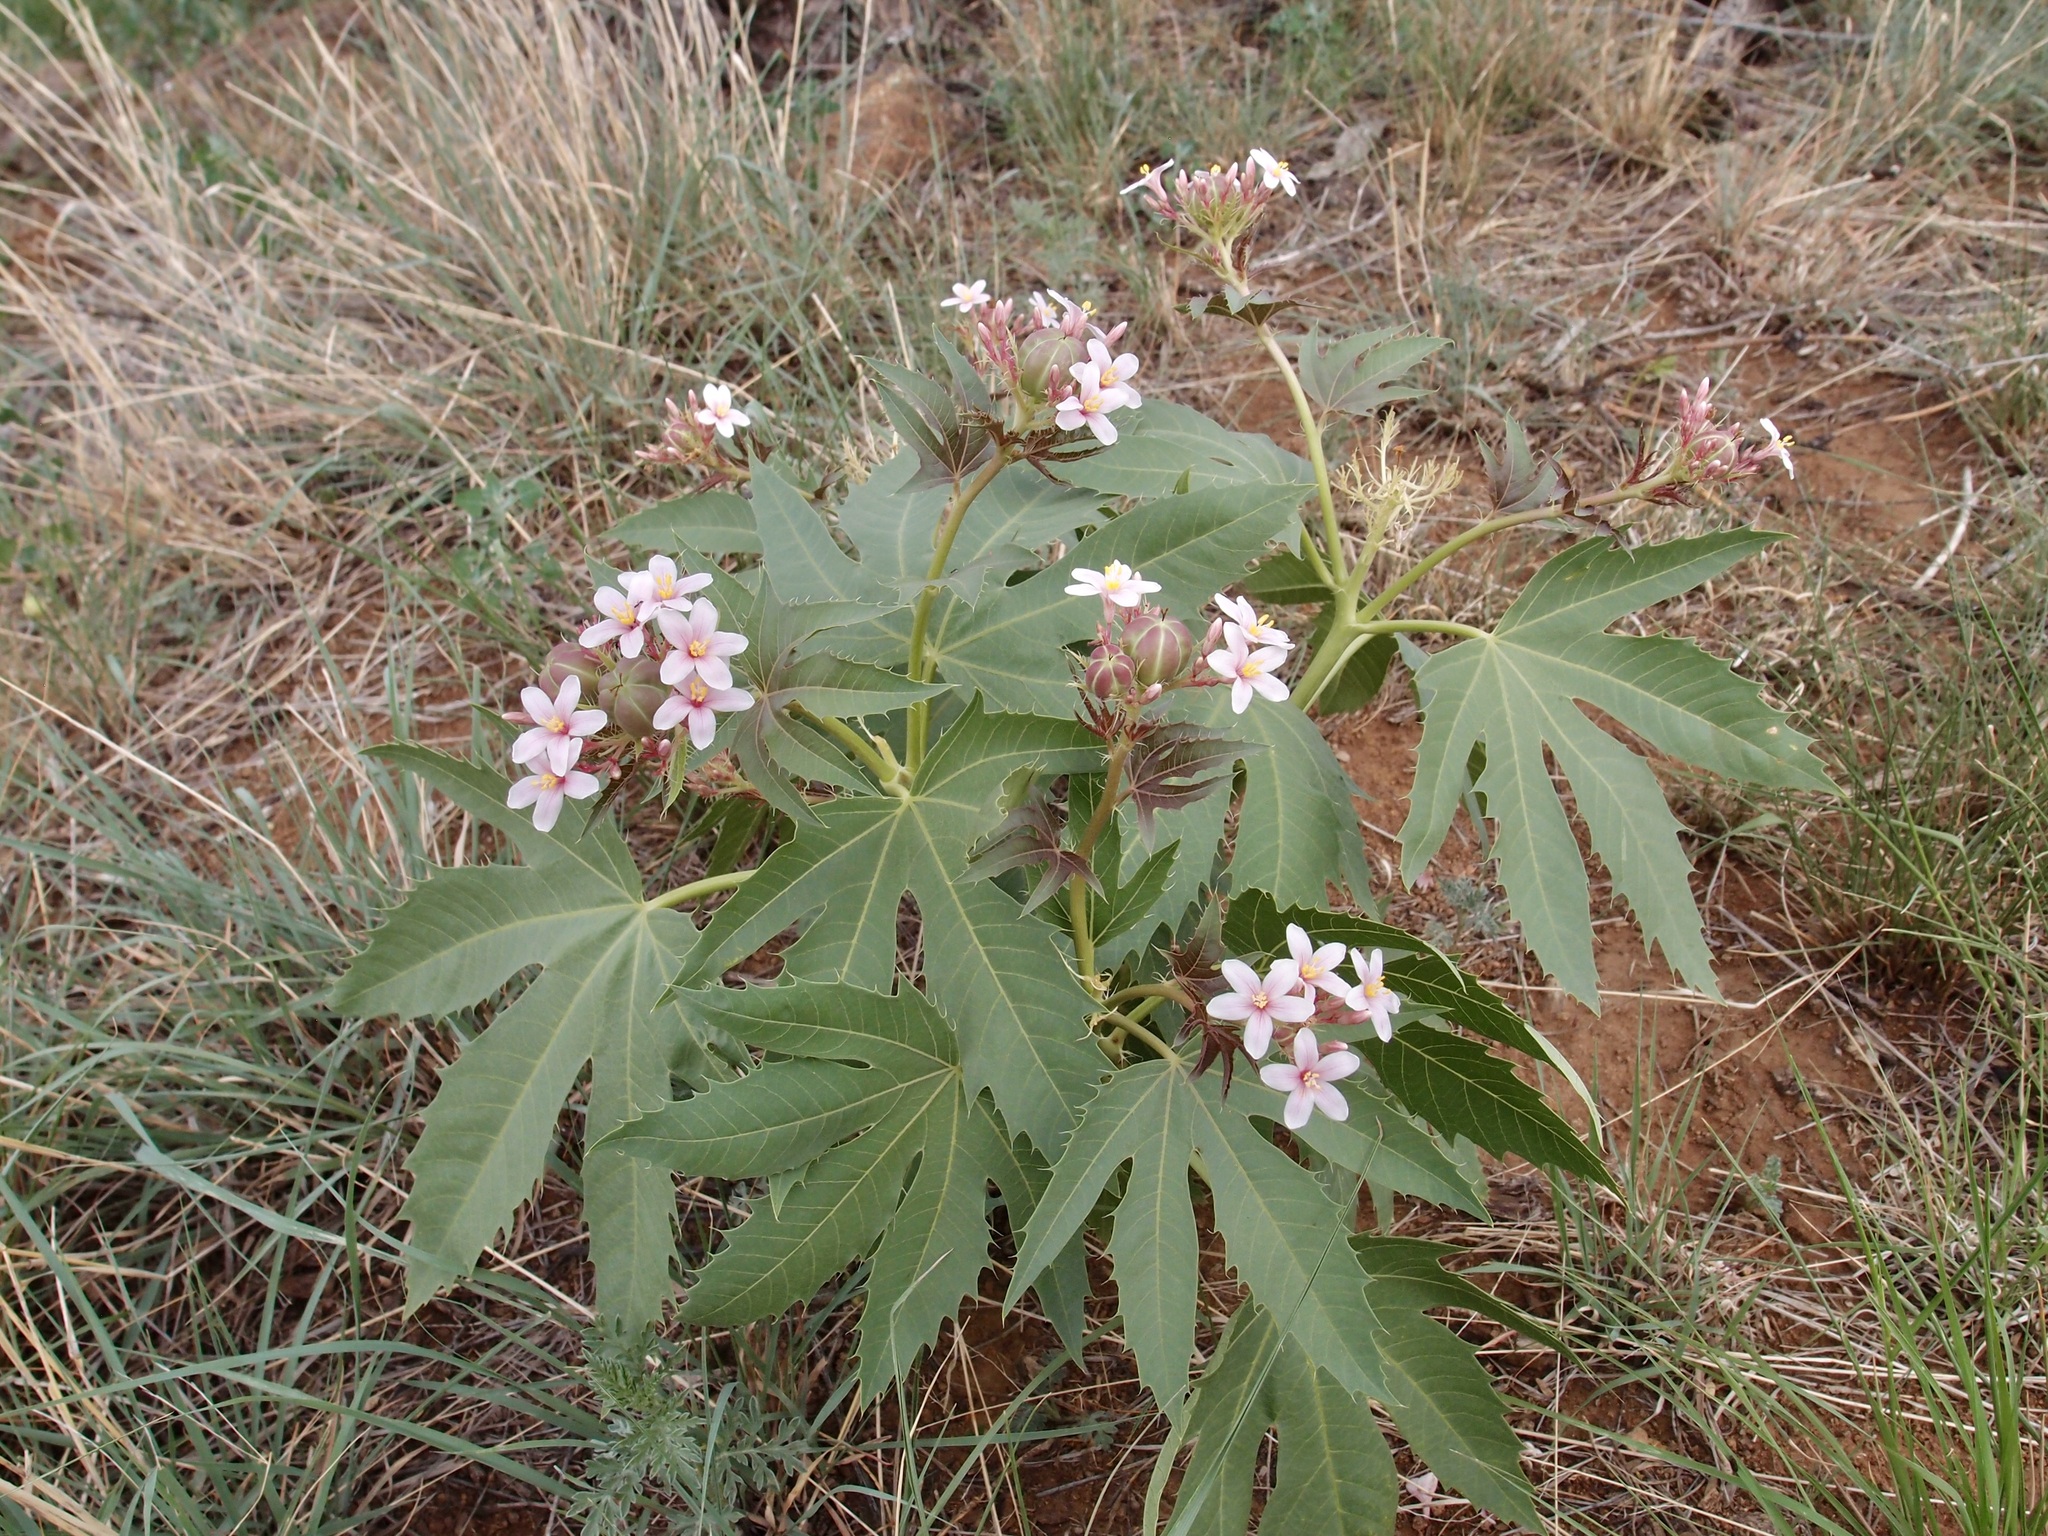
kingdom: Plantae
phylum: Tracheophyta
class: Magnoliopsida
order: Malpighiales
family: Euphorbiaceae
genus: Jatropha
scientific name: Jatropha macrorhiza
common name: Ragged nettlespurge
